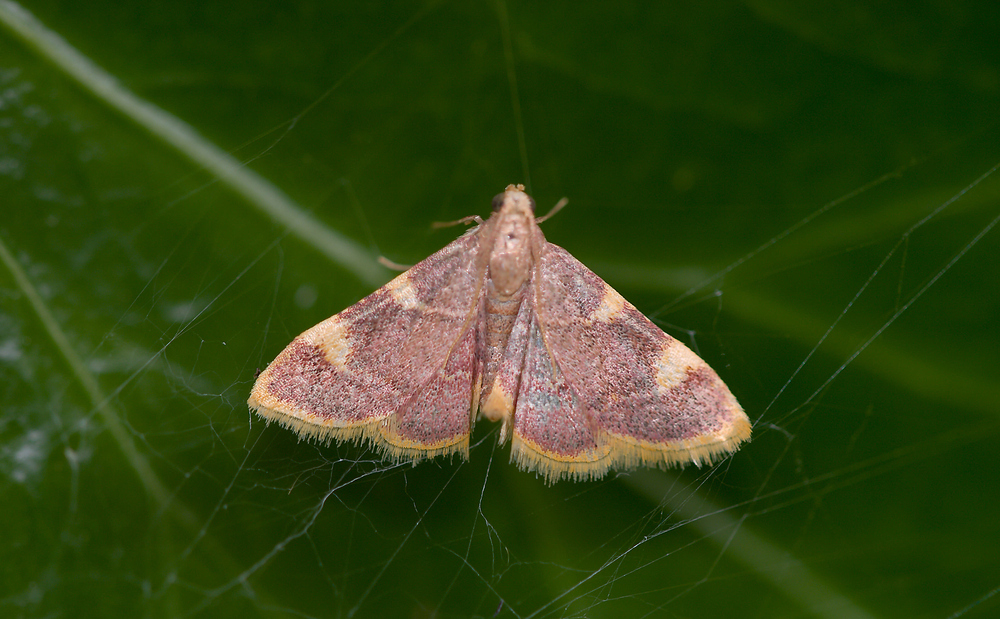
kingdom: Animalia
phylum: Arthropoda
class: Insecta
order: Lepidoptera
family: Pyralidae
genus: Hypsopygia
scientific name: Hypsopygia costalis
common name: Gold triangle
